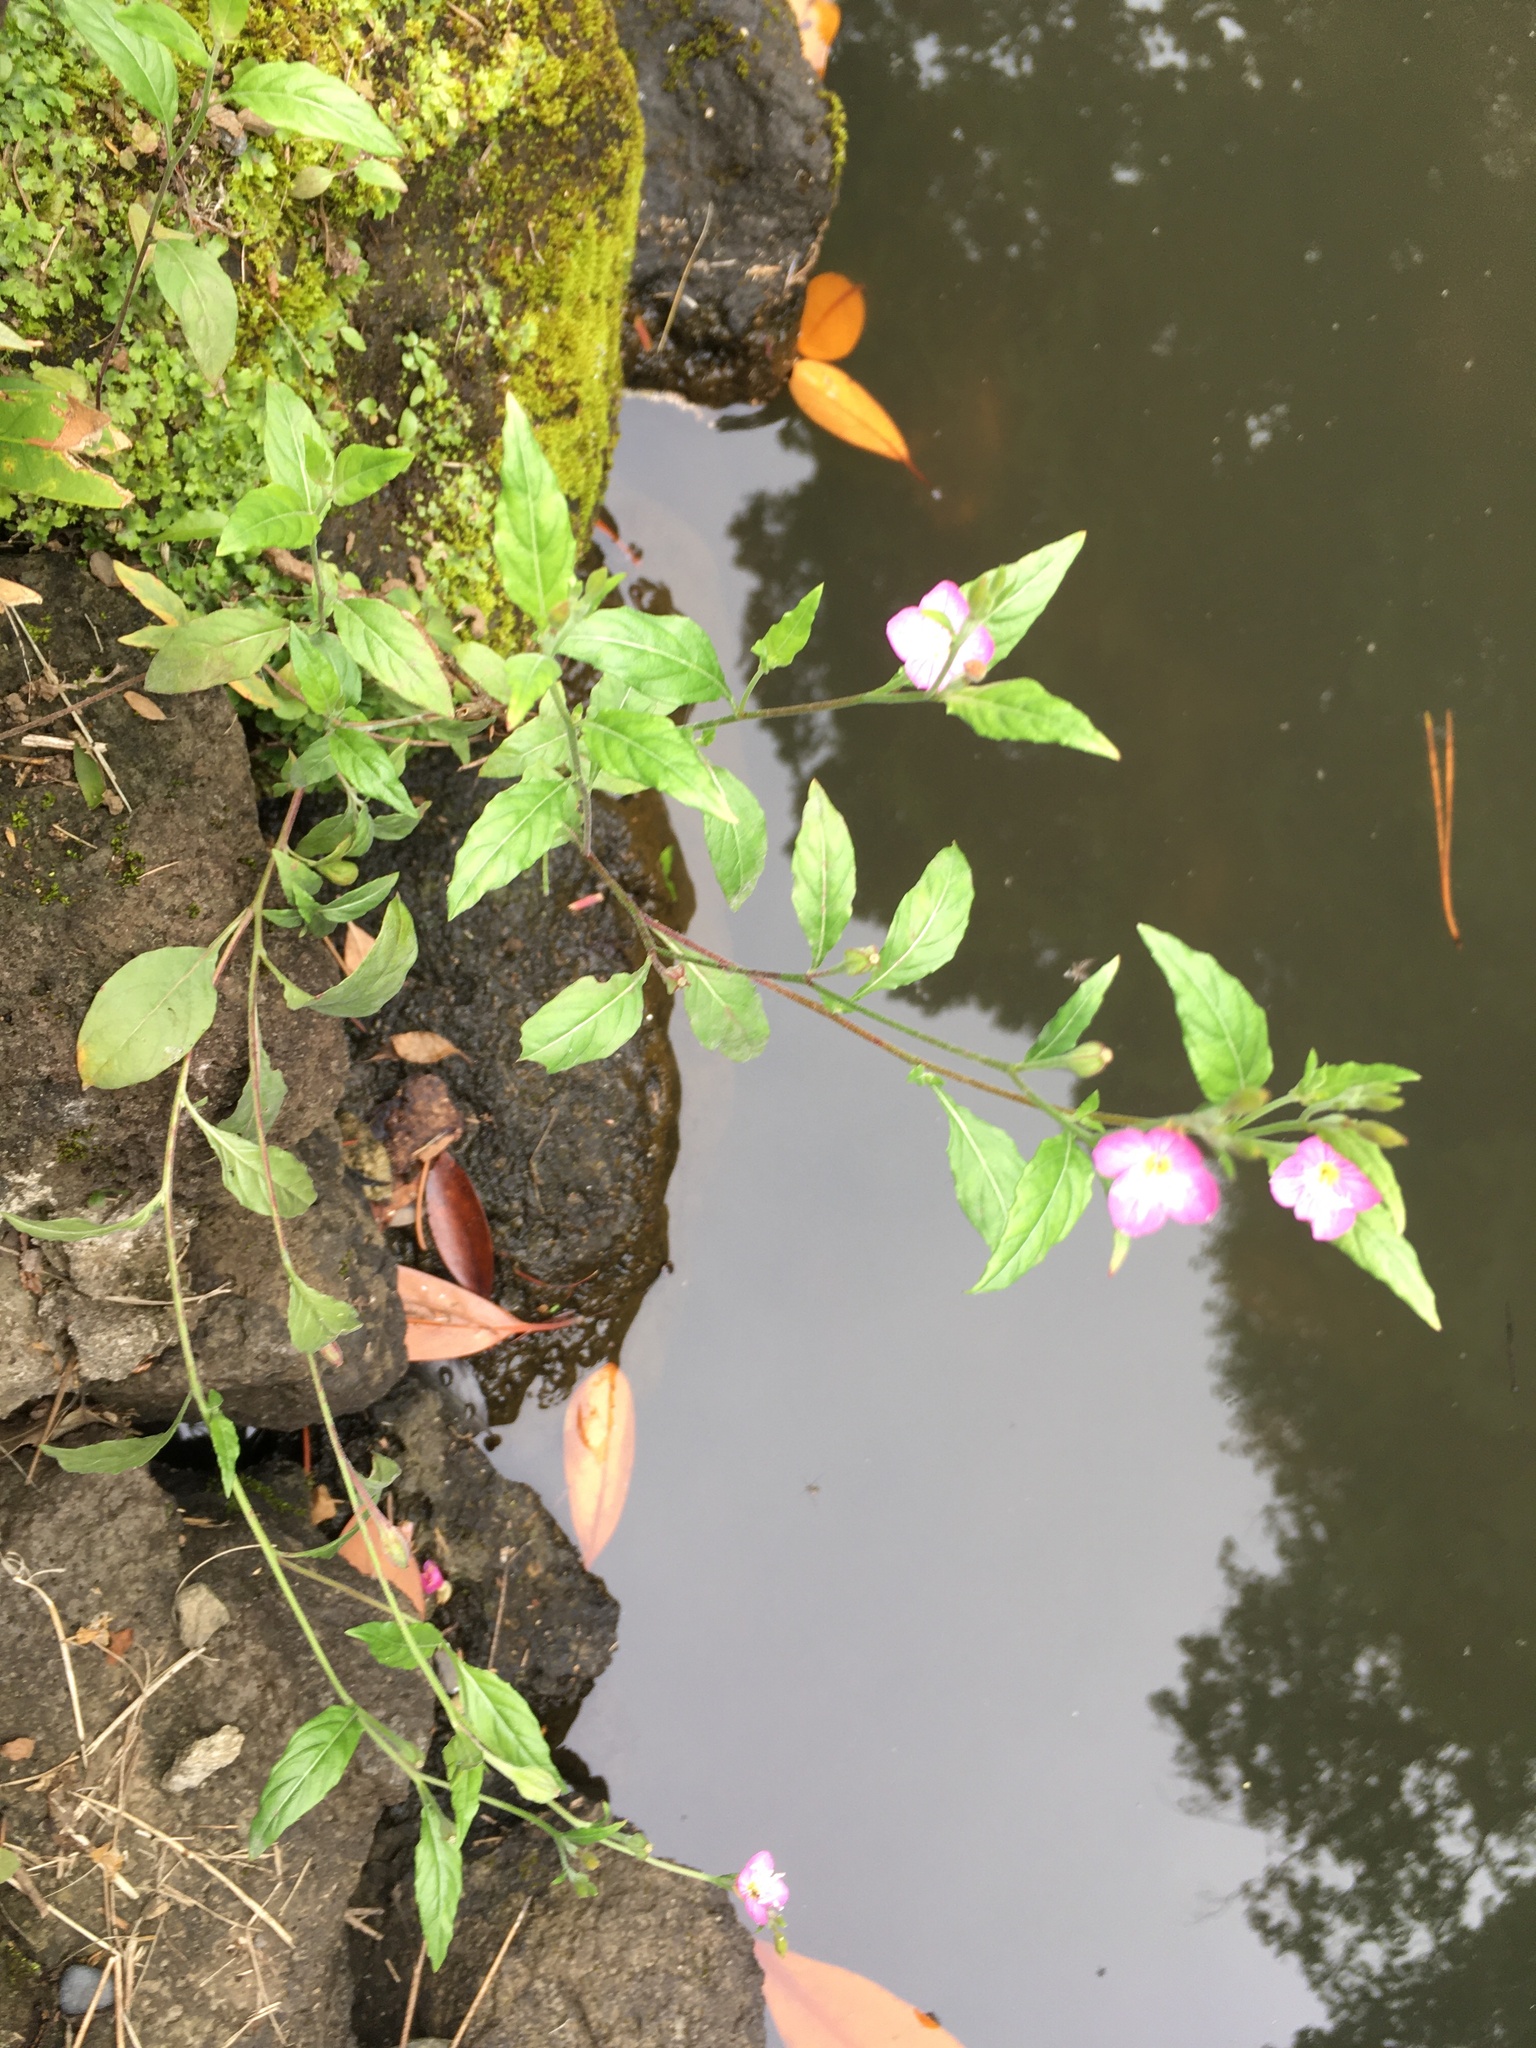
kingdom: Plantae
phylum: Tracheophyta
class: Magnoliopsida
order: Myrtales
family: Onagraceae
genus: Oenothera
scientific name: Oenothera rosea
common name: Rosy evening-primrose
